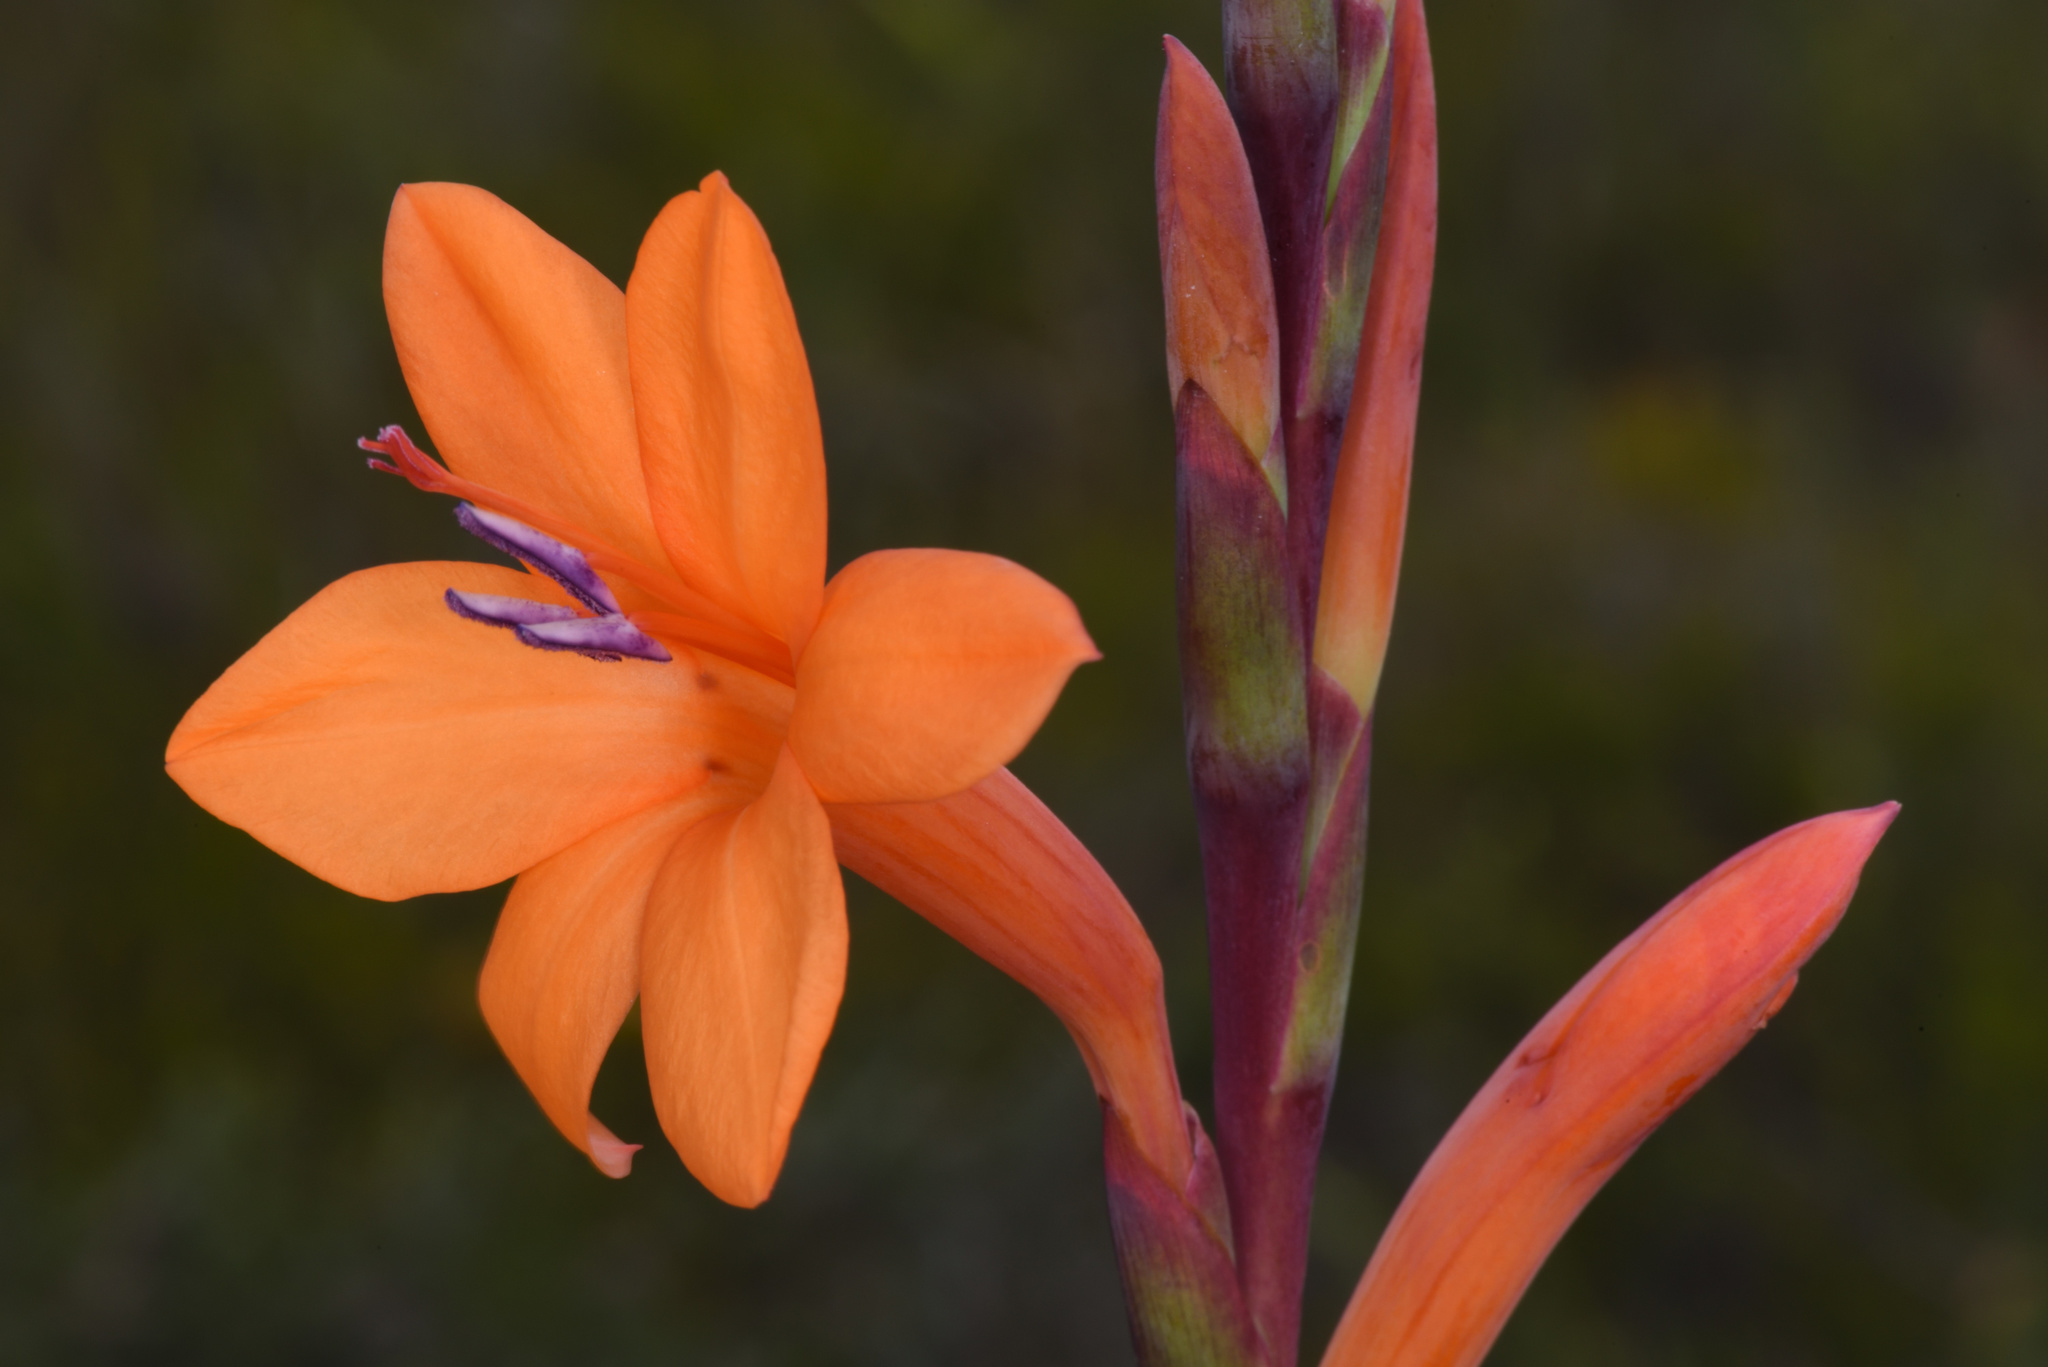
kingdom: Plantae
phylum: Tracheophyta
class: Liliopsida
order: Asparagales
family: Iridaceae
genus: Watsonia
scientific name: Watsonia pillansii
